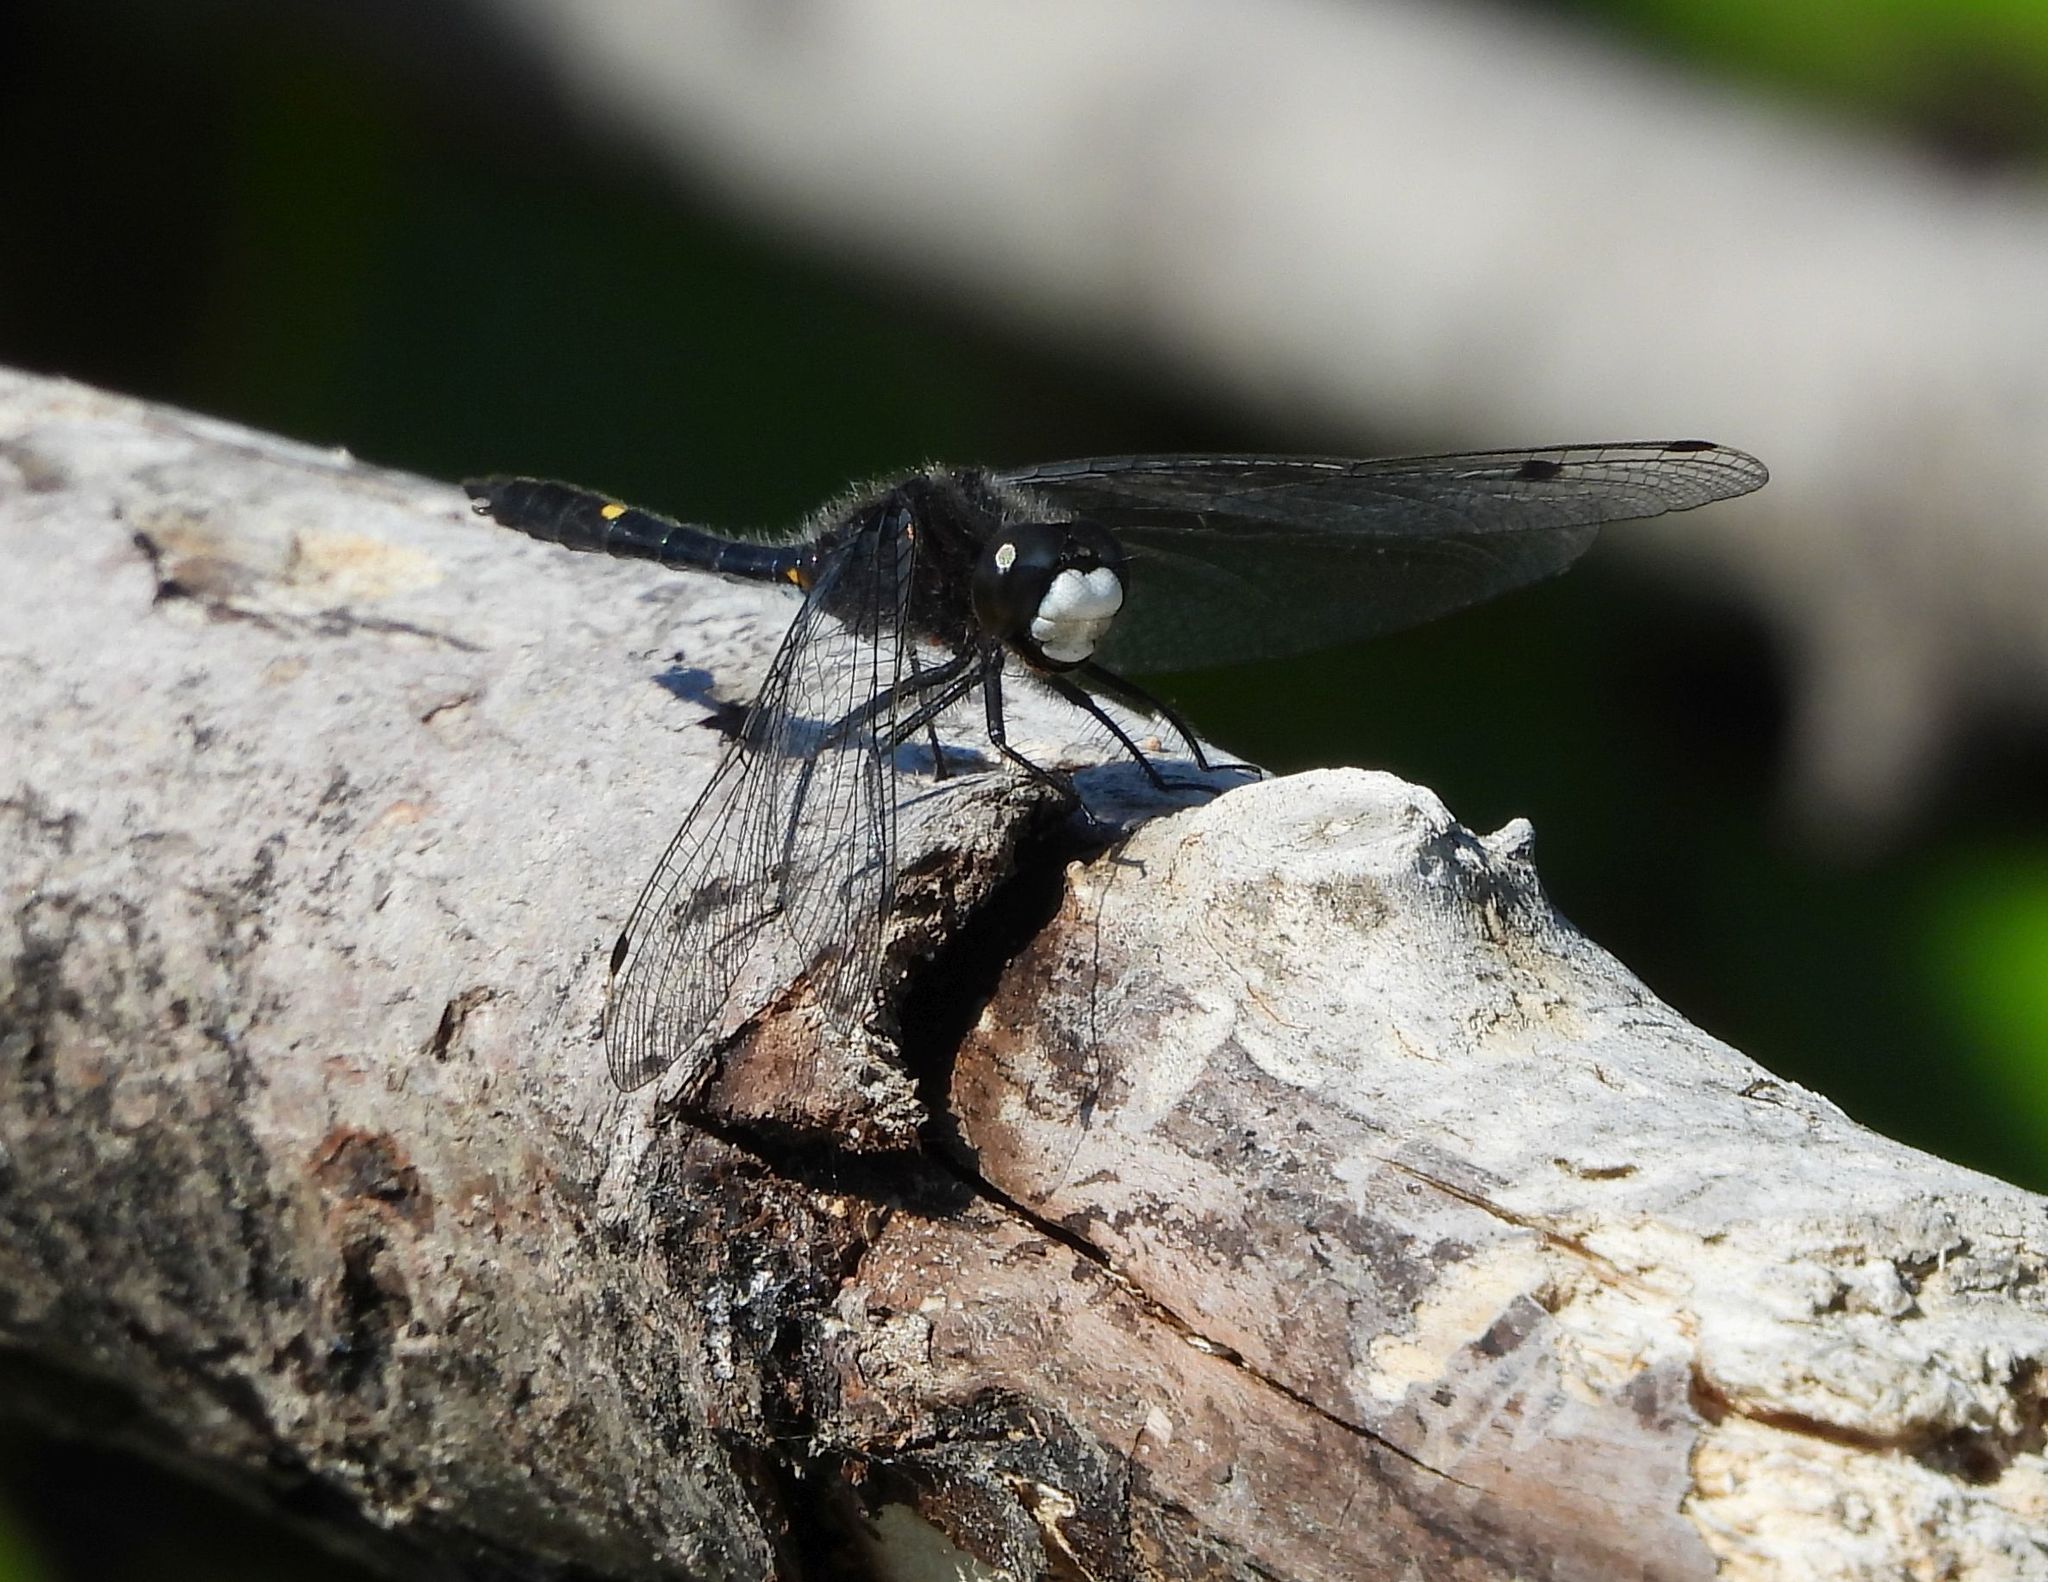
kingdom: Animalia
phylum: Arthropoda
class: Insecta
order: Odonata
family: Libellulidae
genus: Leucorrhinia
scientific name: Leucorrhinia intacta
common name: Dot-tailed whiteface
